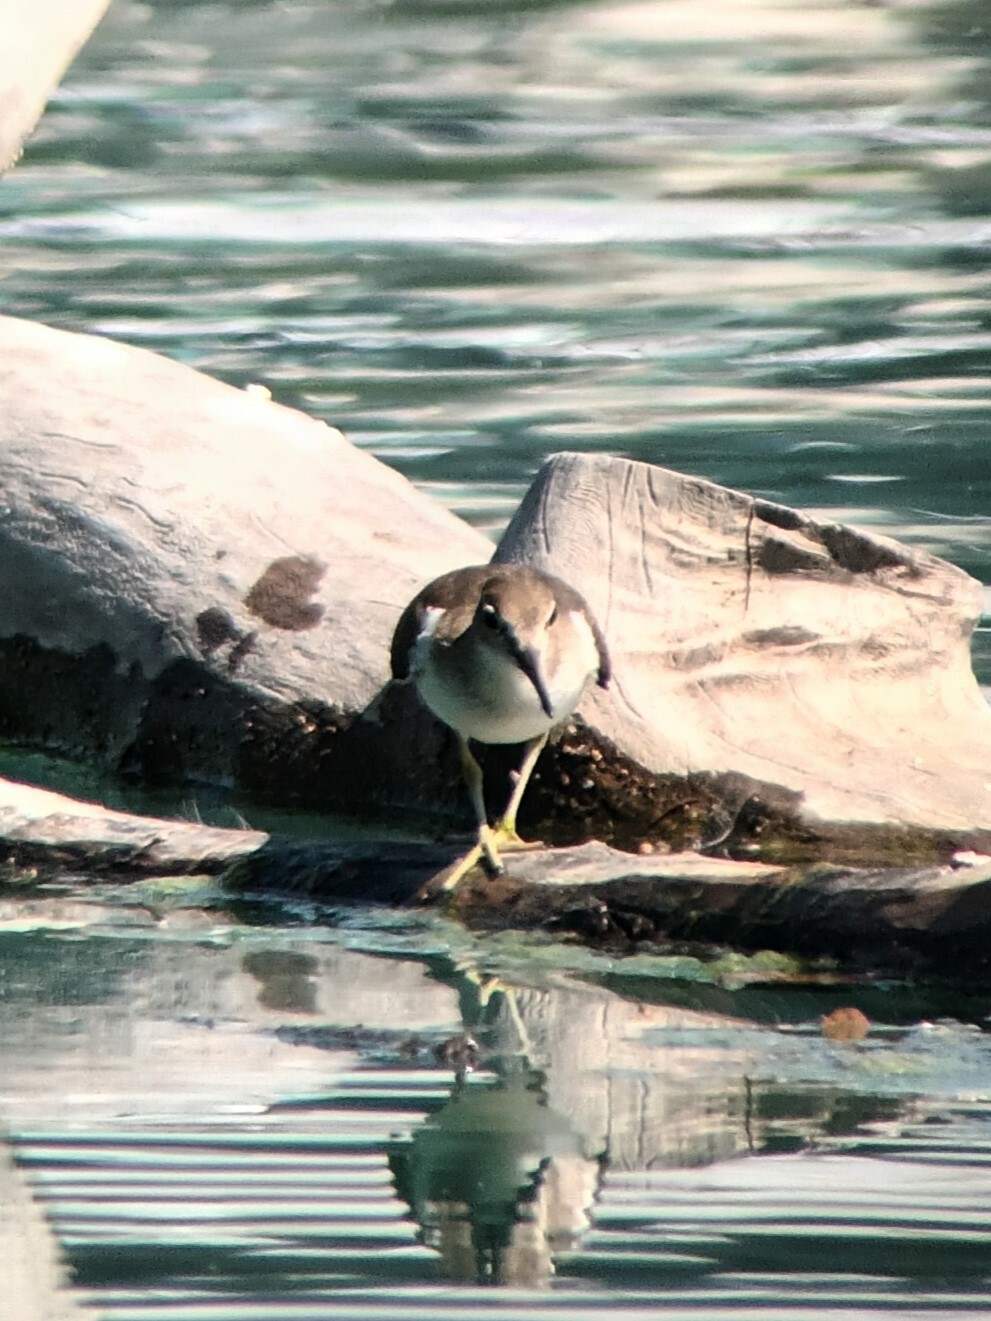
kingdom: Animalia
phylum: Chordata
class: Aves
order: Charadriiformes
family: Scolopacidae
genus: Actitis
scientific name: Actitis hypoleucos
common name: Common sandpiper
